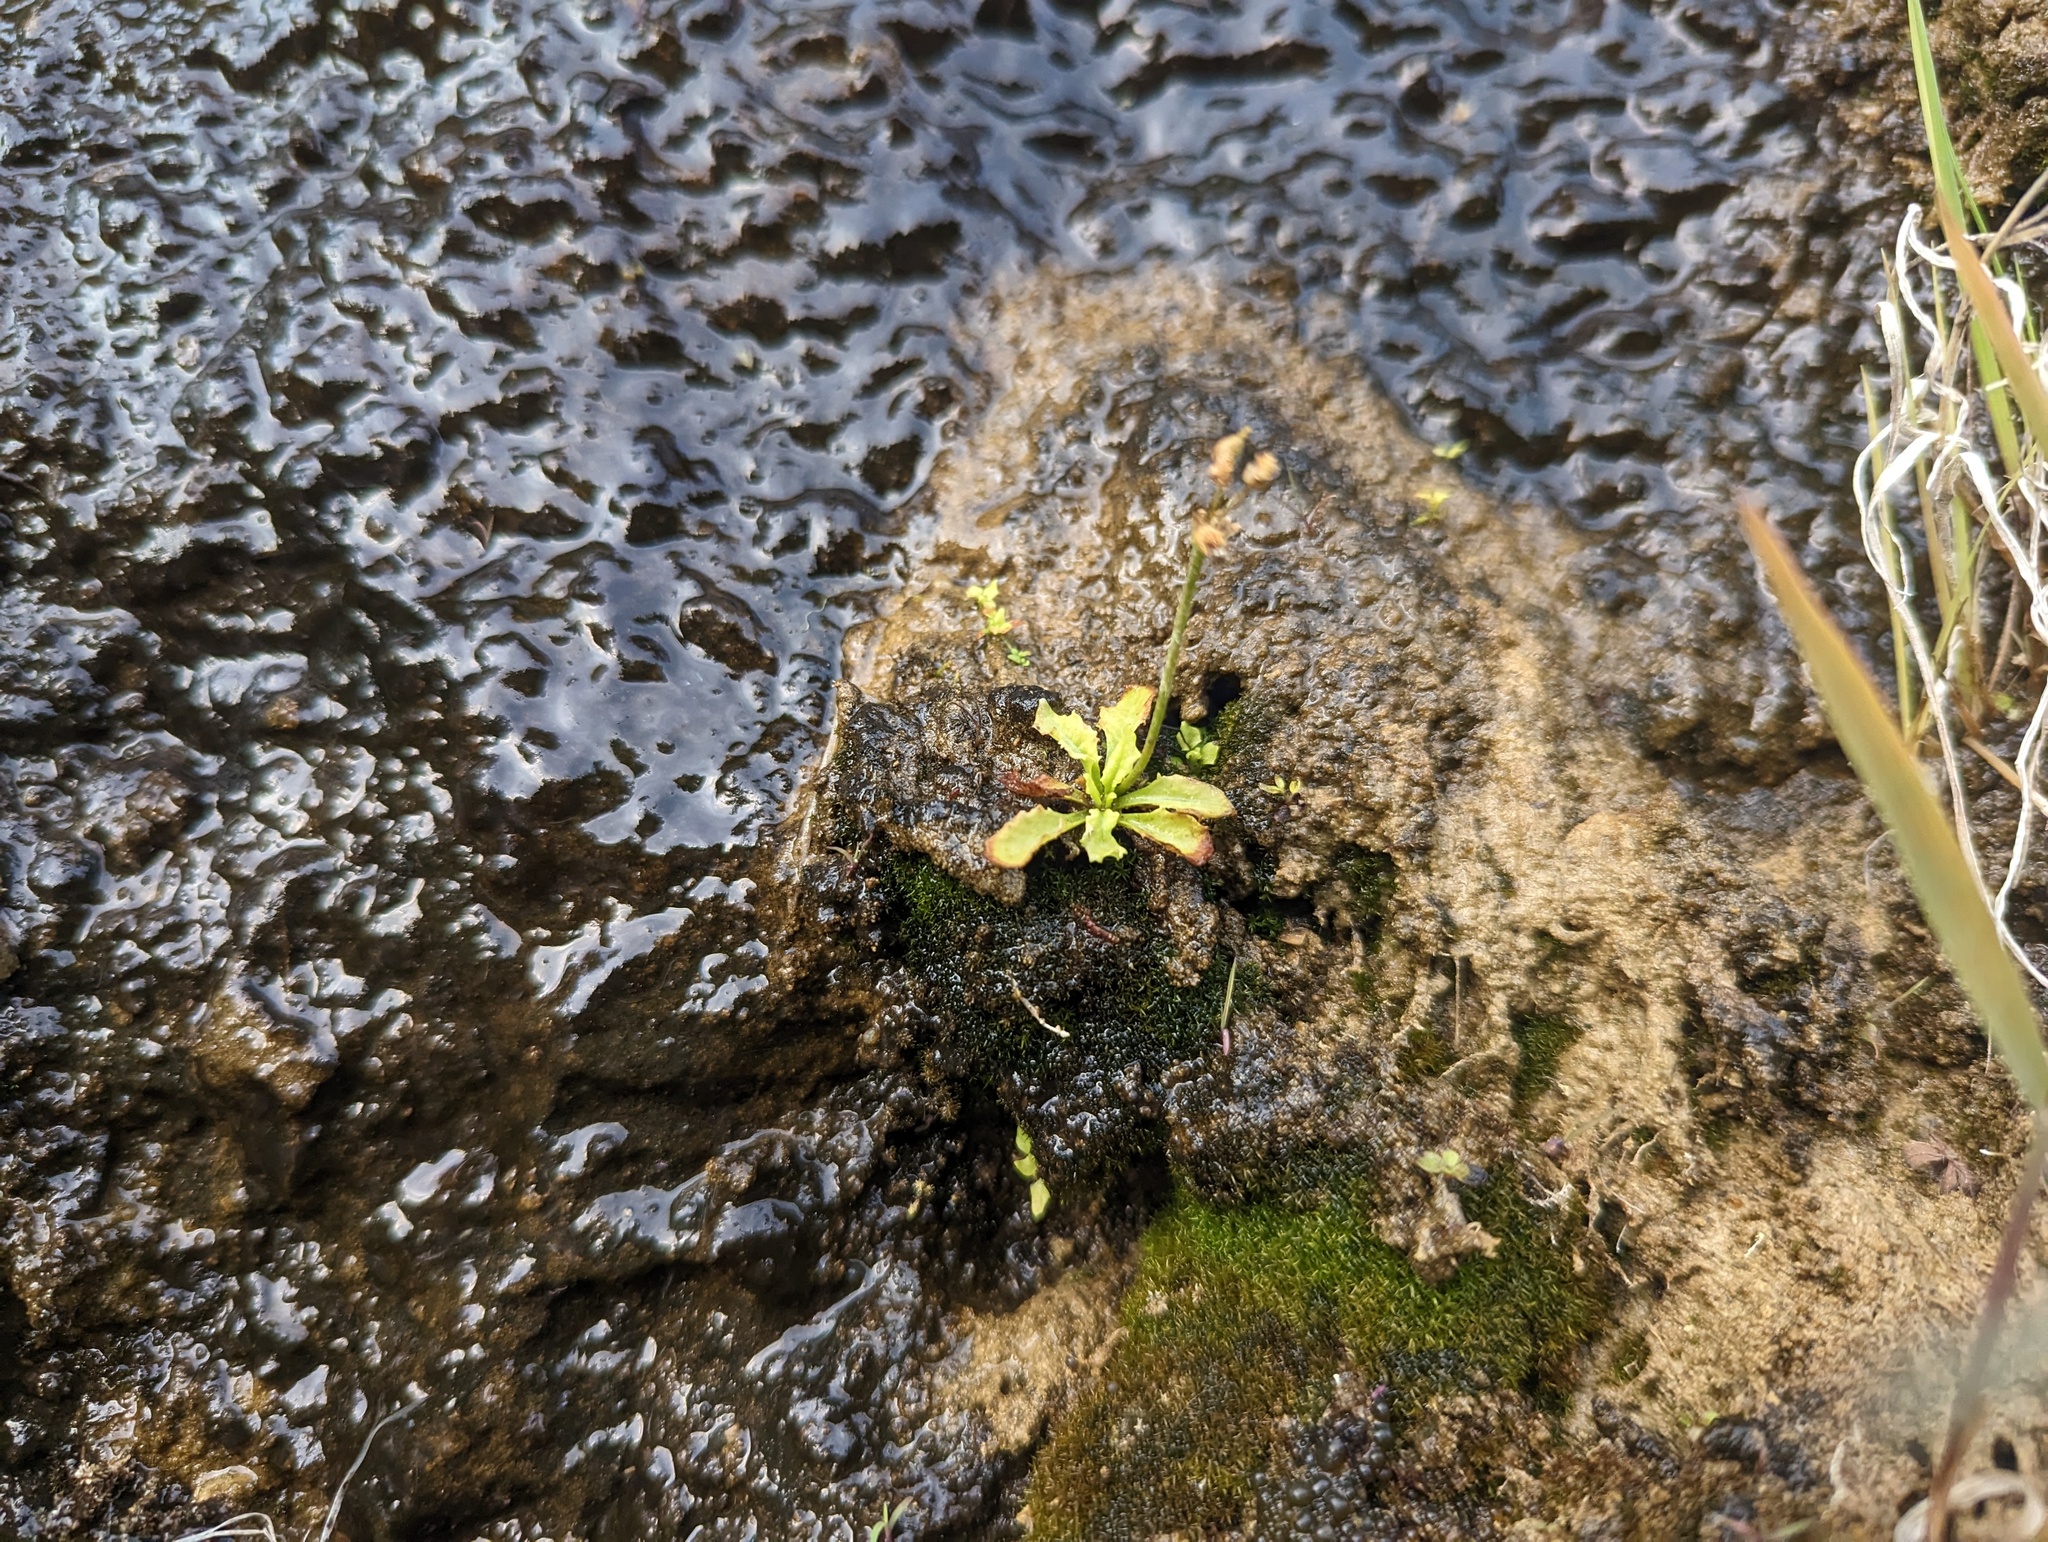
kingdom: Plantae
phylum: Tracheophyta
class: Magnoliopsida
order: Ericales
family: Primulaceae
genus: Primula
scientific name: Primula mistassinica
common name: Bird's-eye primrose
